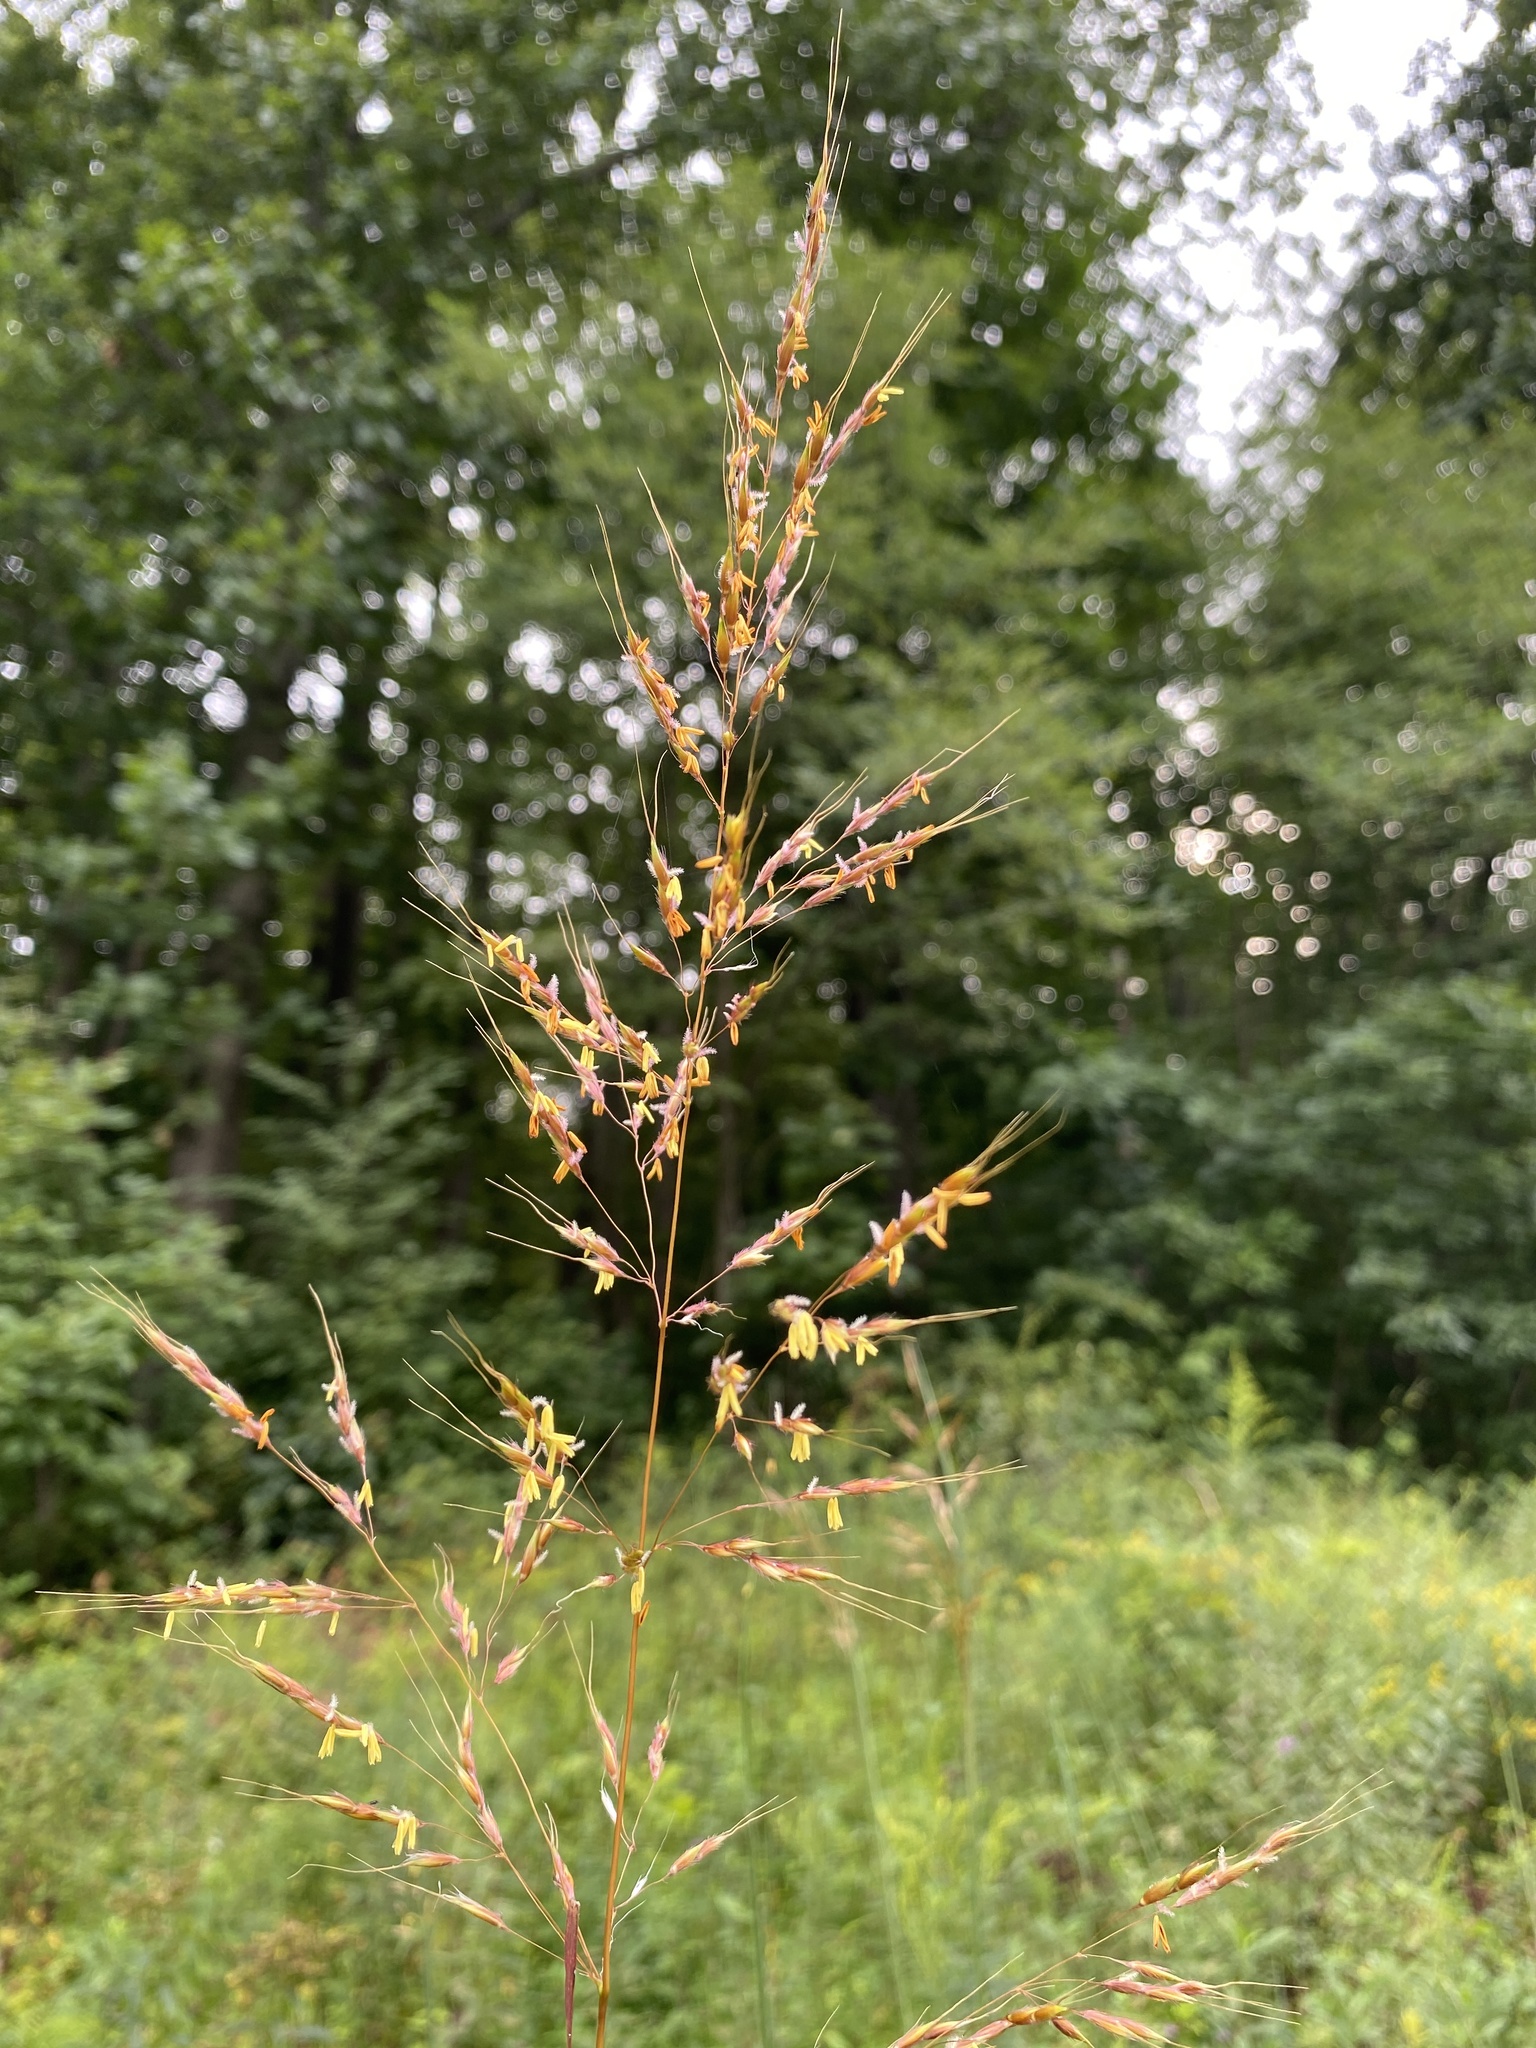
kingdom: Plantae
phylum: Tracheophyta
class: Liliopsida
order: Poales
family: Poaceae
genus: Sorghastrum
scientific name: Sorghastrum nutans
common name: Indian grass
